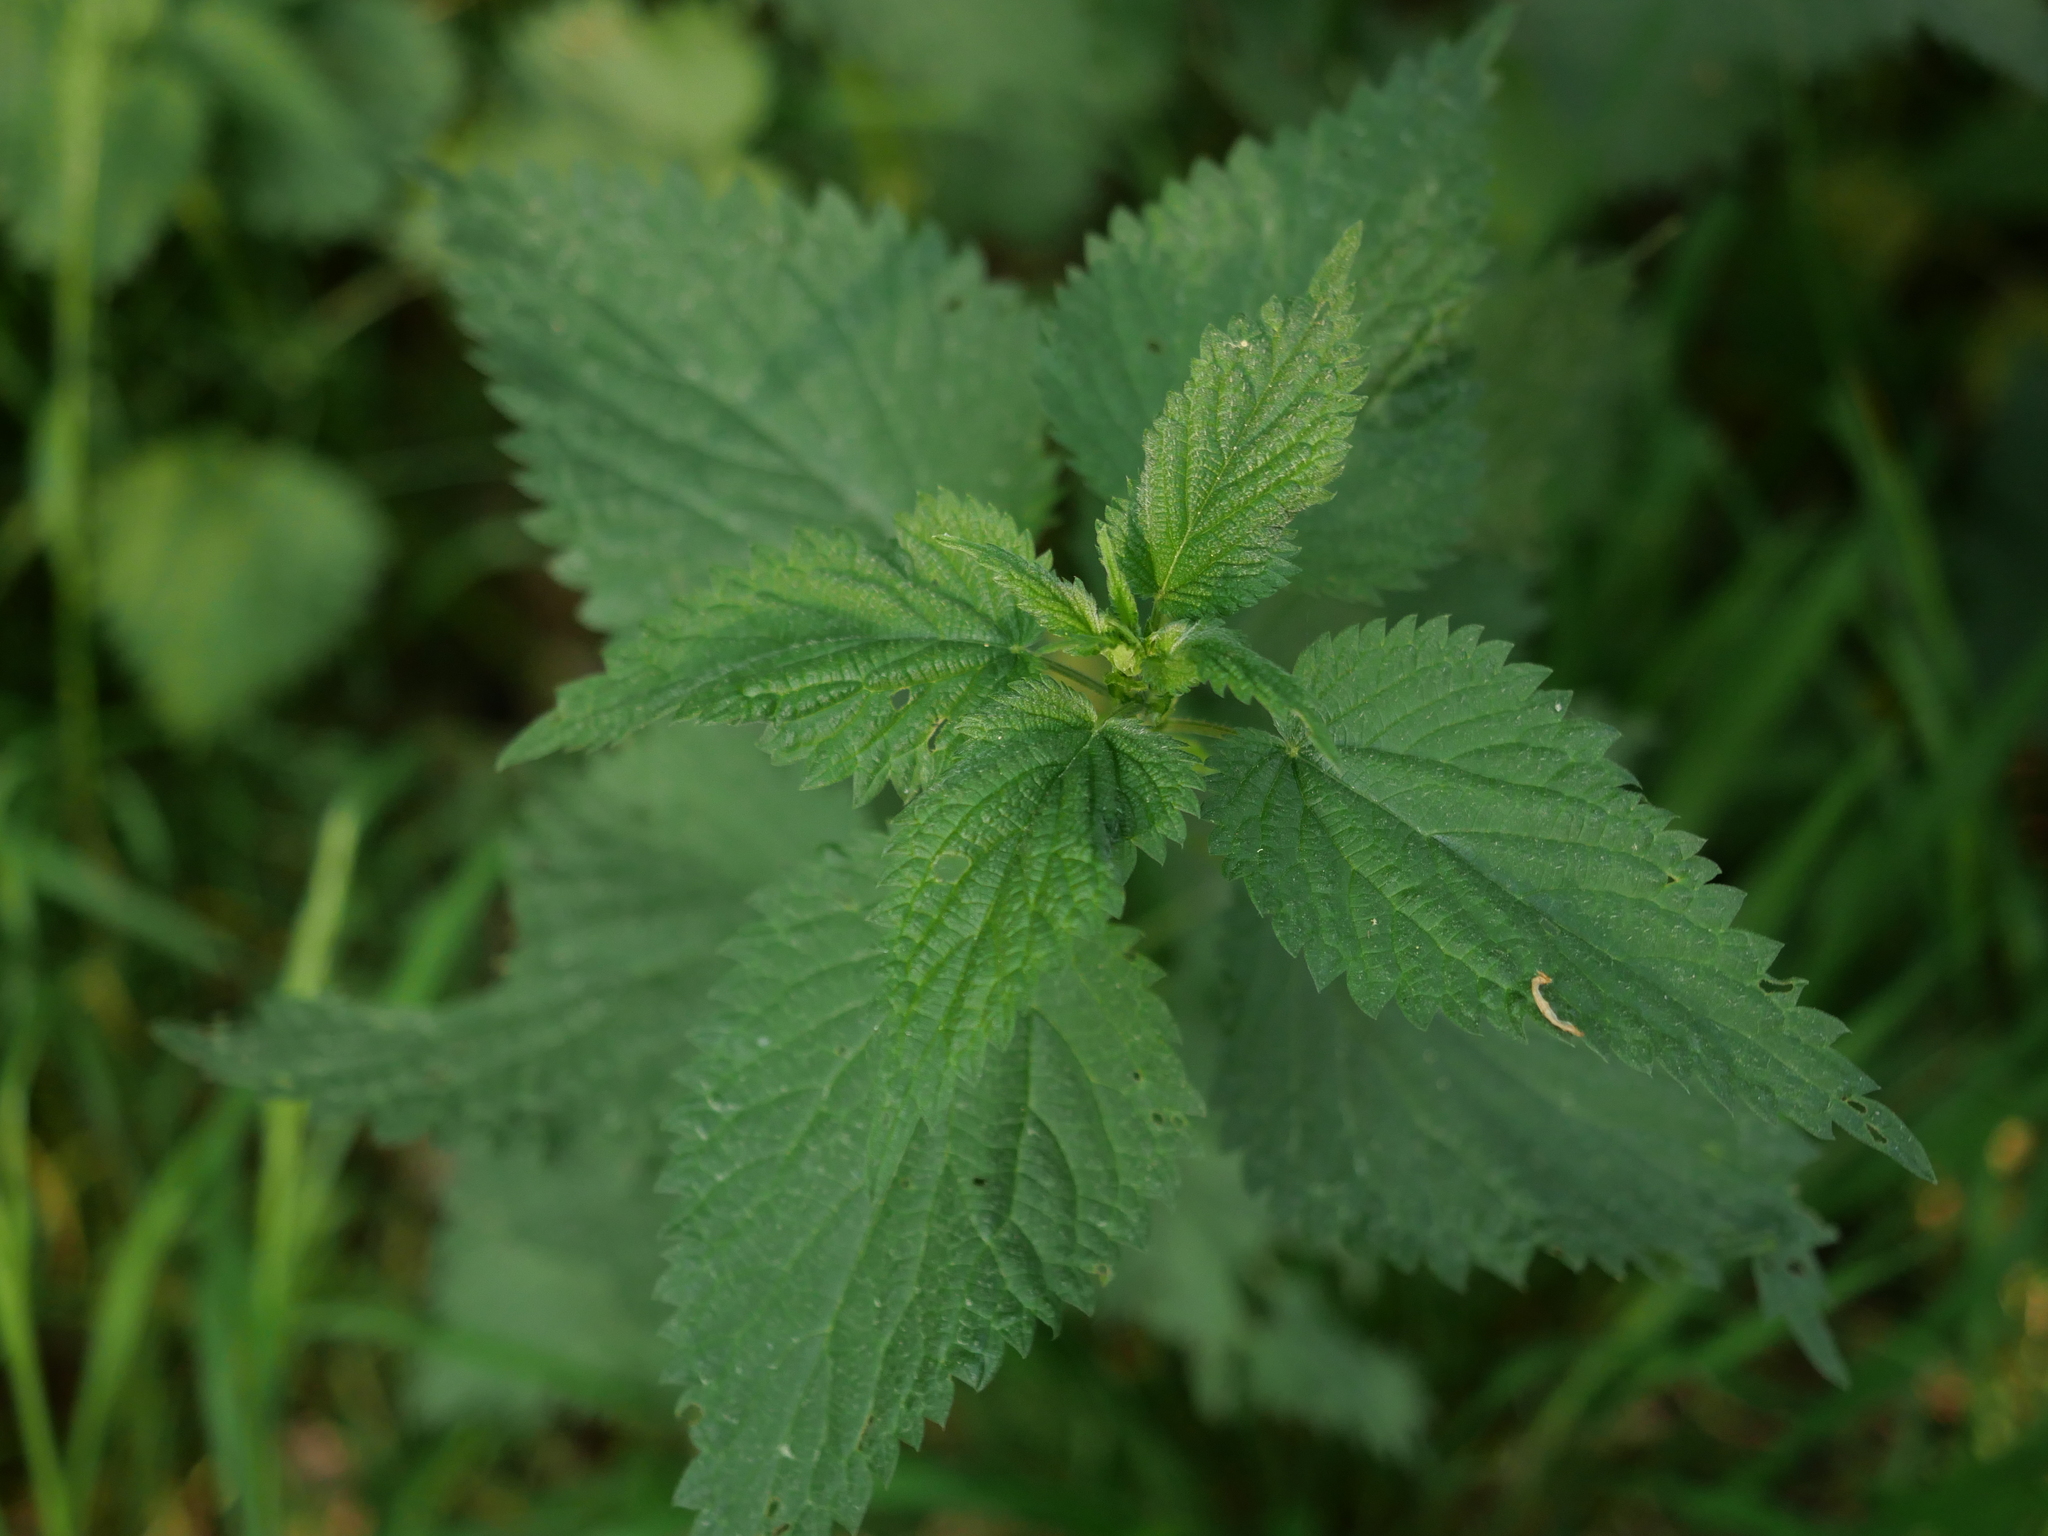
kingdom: Plantae
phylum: Tracheophyta
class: Magnoliopsida
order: Rosales
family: Urticaceae
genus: Urtica
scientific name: Urtica dioica
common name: Common nettle
